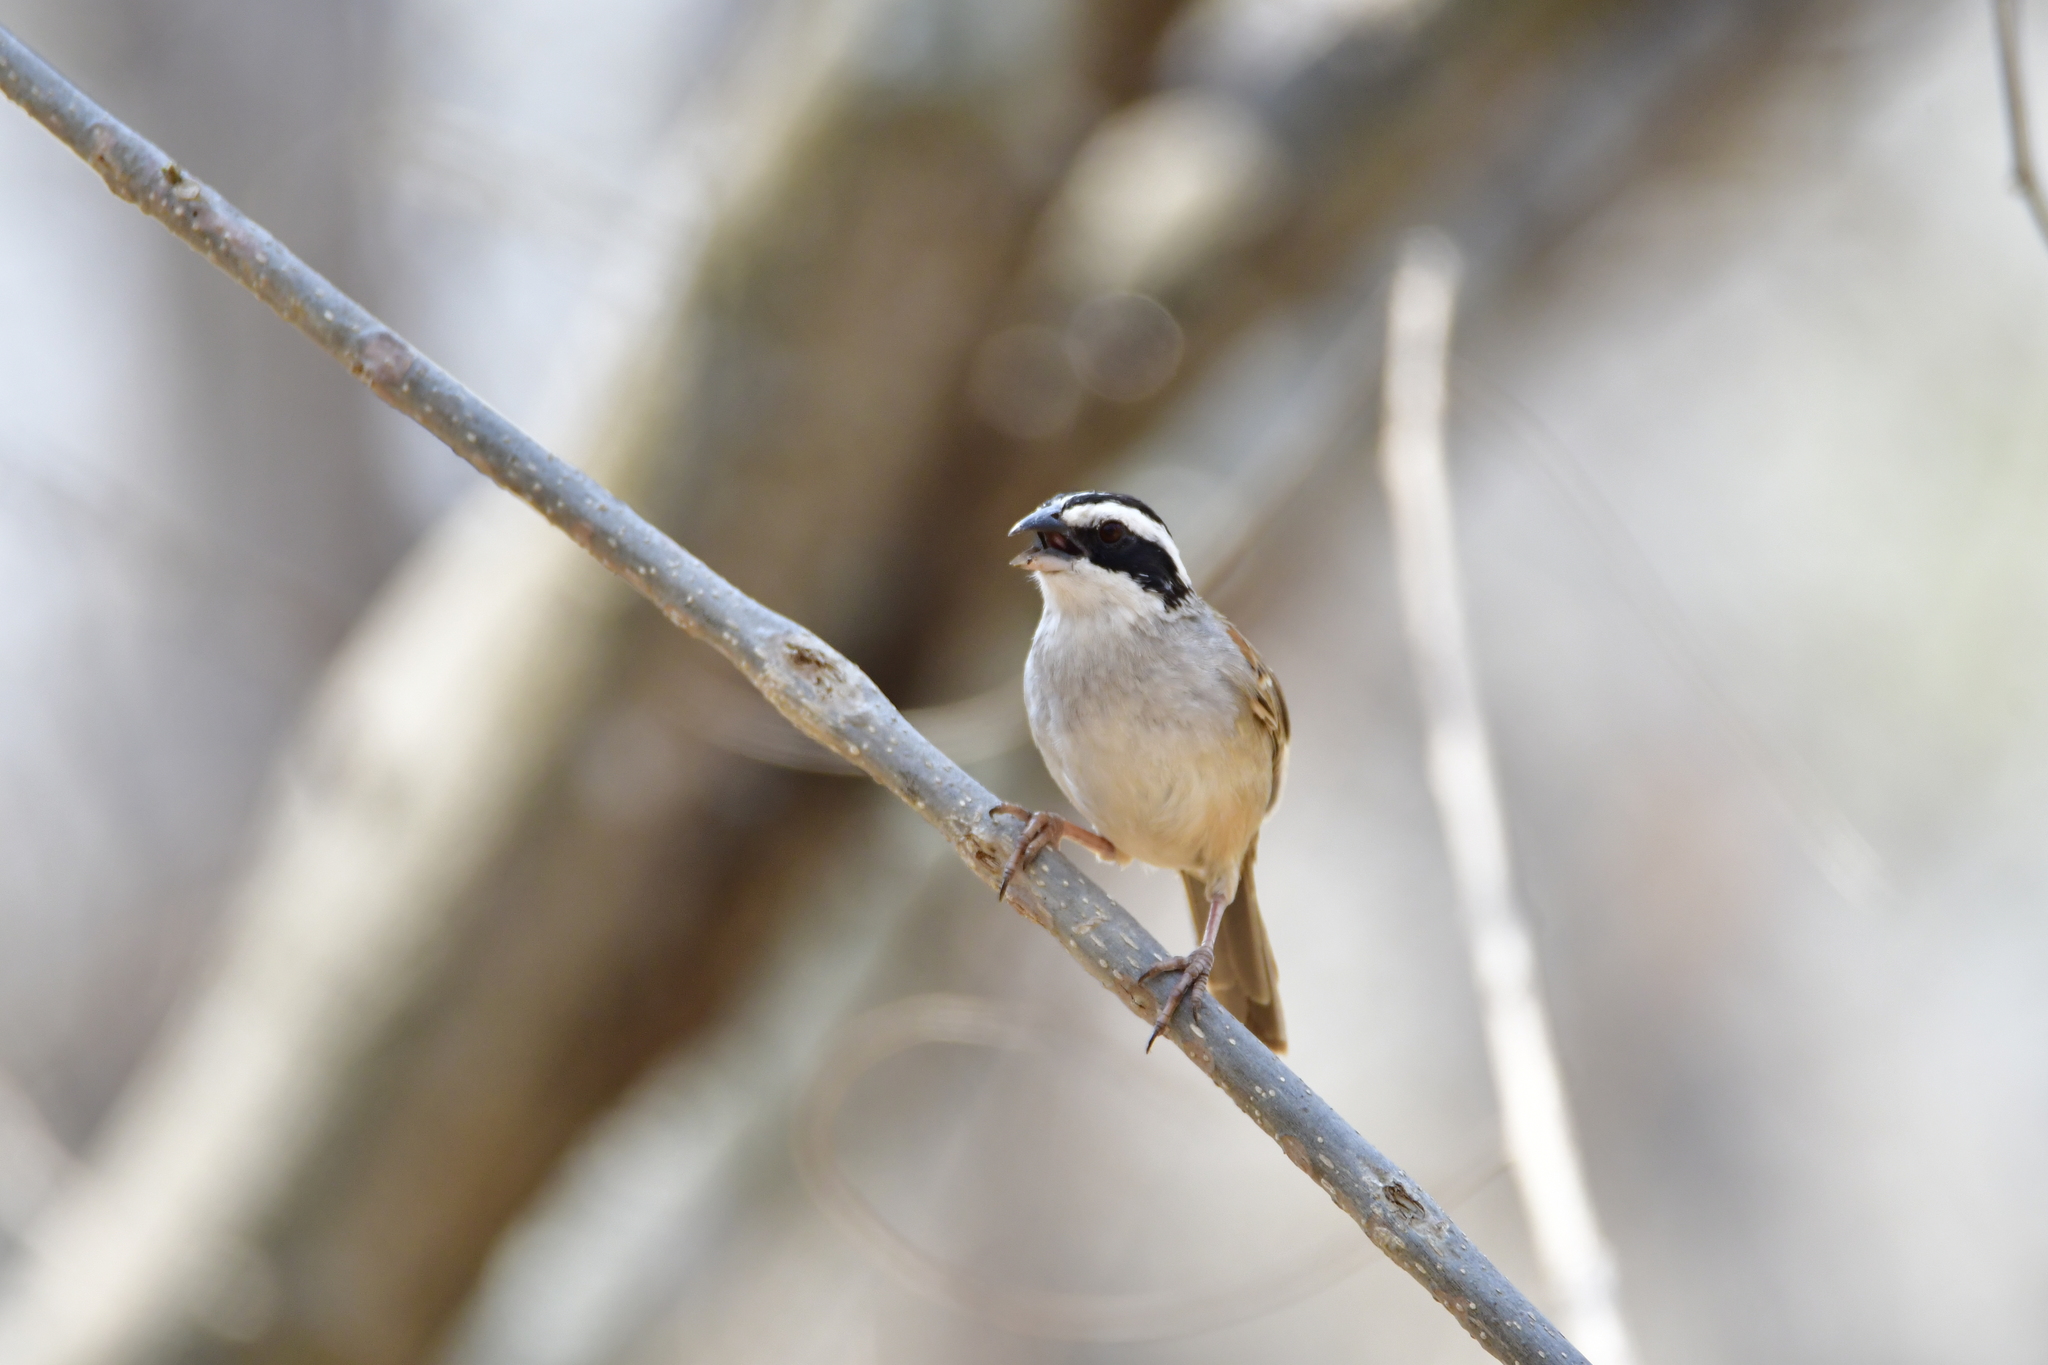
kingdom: Animalia
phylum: Chordata
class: Aves
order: Passeriformes
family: Passerellidae
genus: Peucaea
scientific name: Peucaea ruficauda
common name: Stripe-headed sparrow
